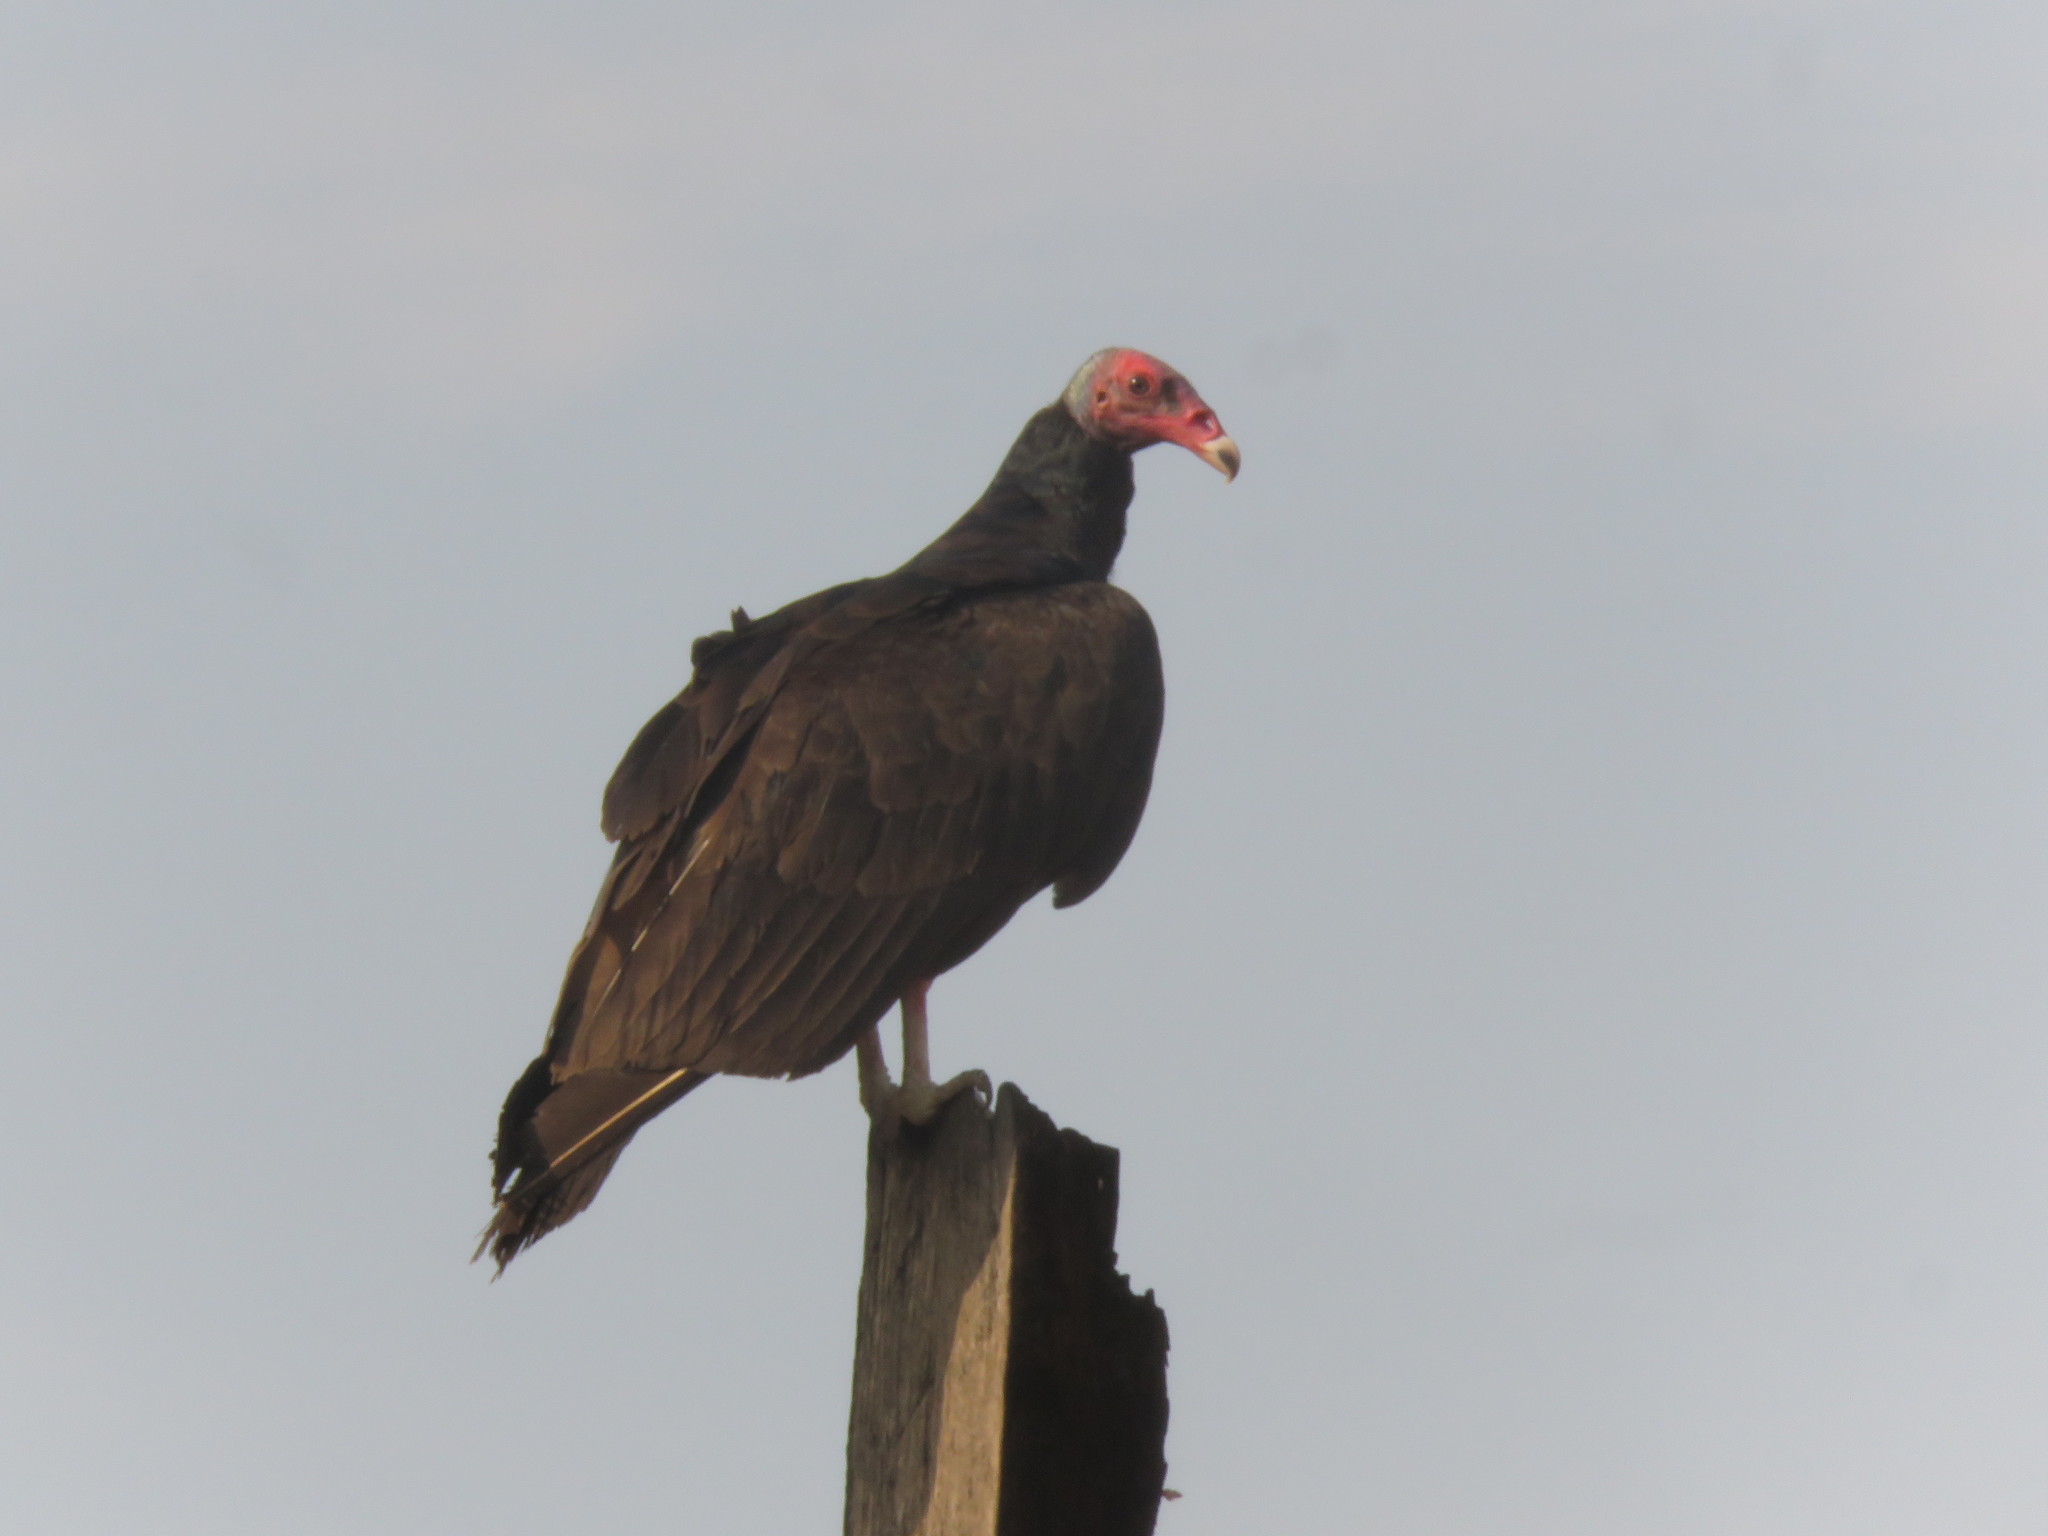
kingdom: Animalia
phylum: Chordata
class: Aves
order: Accipitriformes
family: Cathartidae
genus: Cathartes
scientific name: Cathartes aura
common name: Turkey vulture
